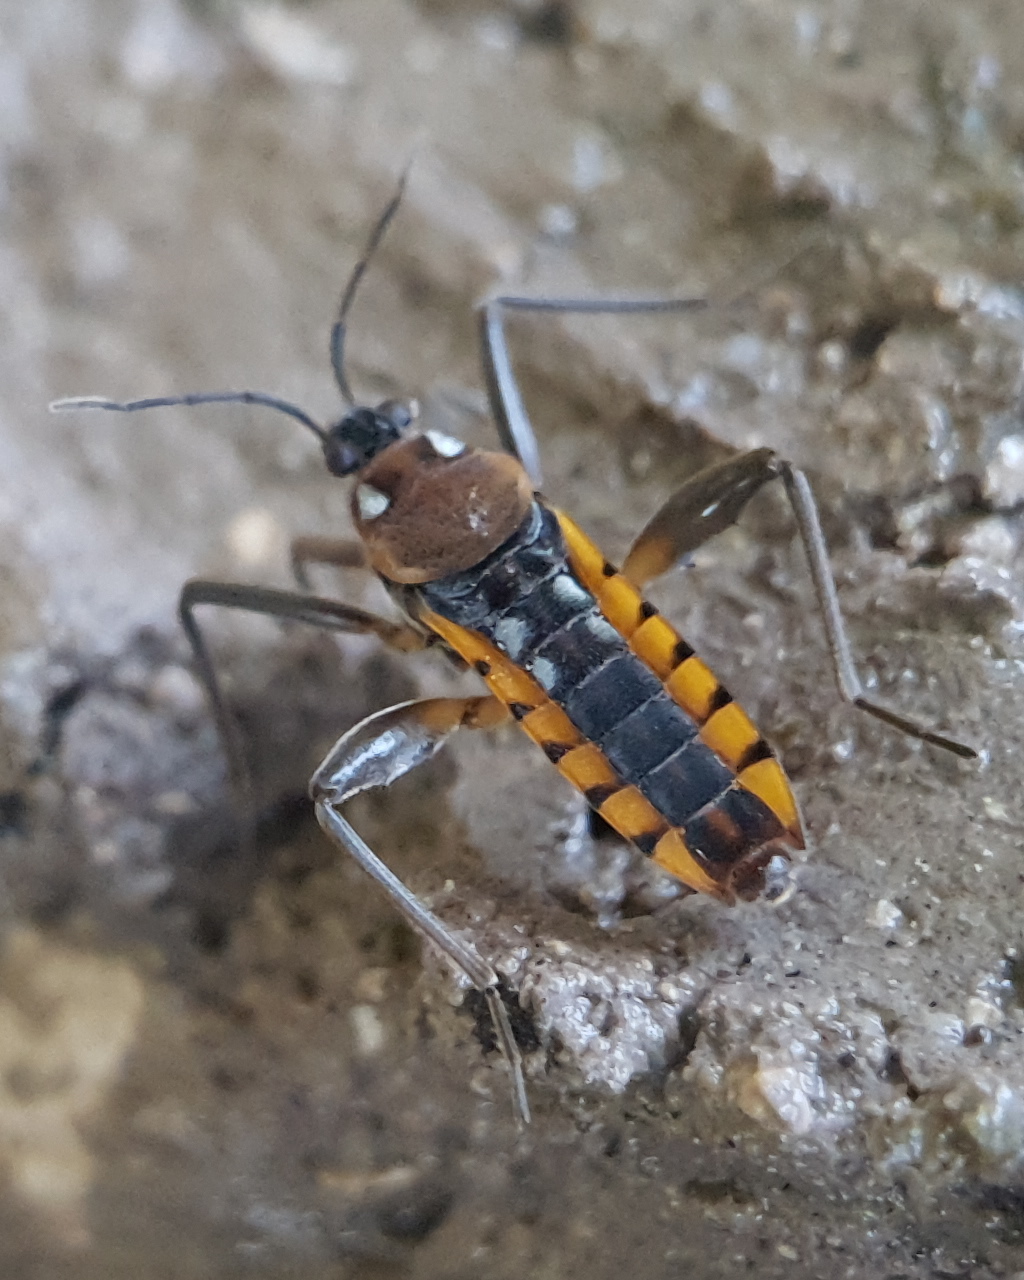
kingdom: Animalia
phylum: Arthropoda
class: Insecta
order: Hemiptera
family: Veliidae
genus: Velia
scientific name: Velia affinis
